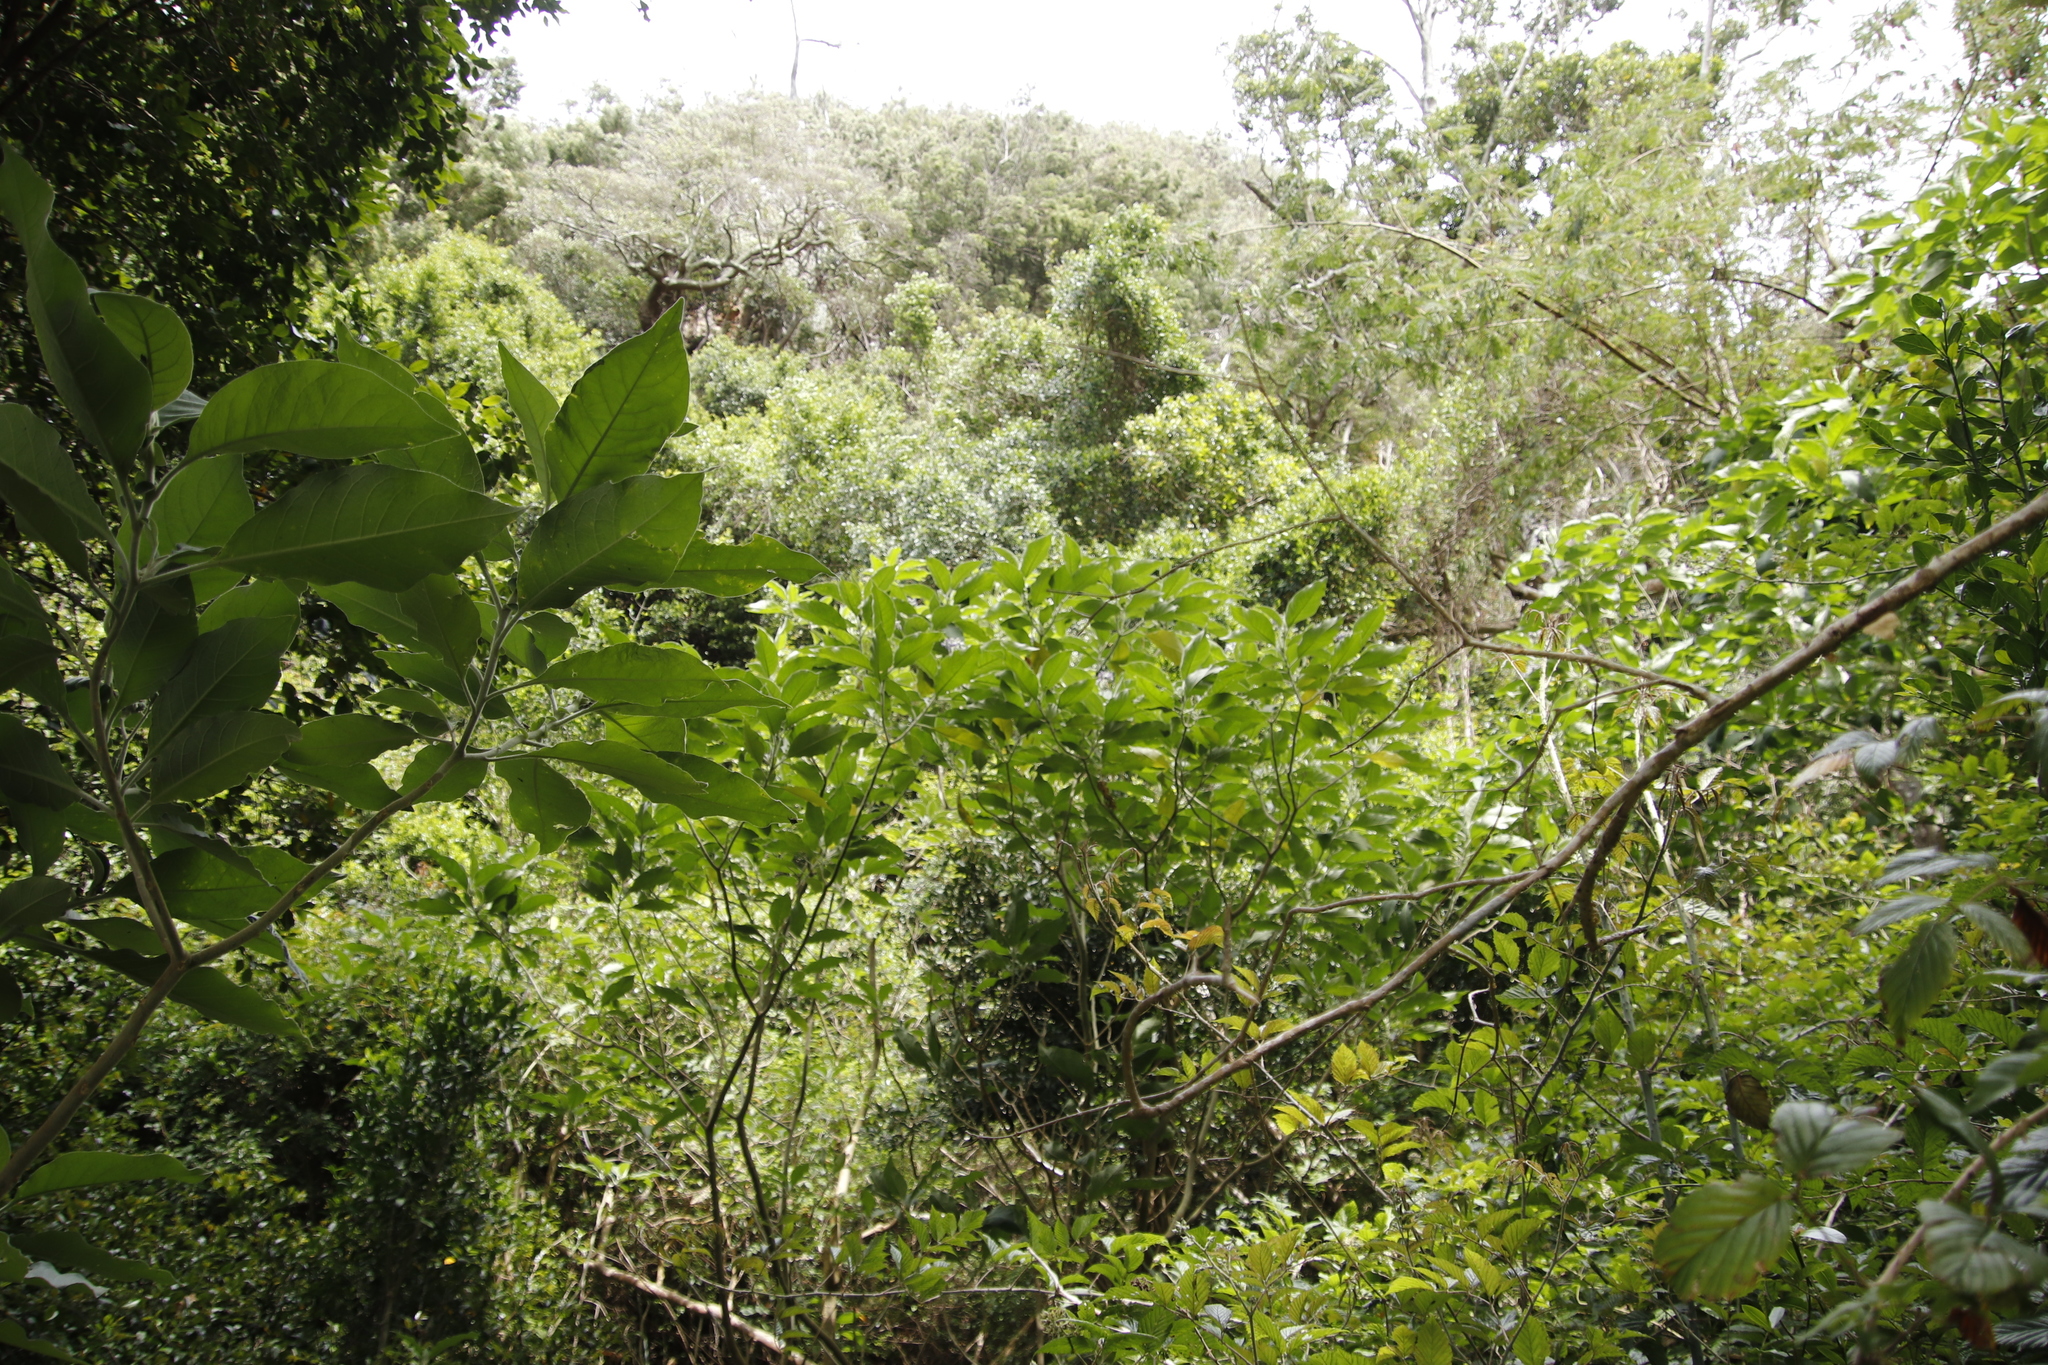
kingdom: Plantae
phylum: Tracheophyta
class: Magnoliopsida
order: Solanales
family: Solanaceae
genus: Solanum
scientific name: Solanum mauritianum
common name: Earleaf nightshade
